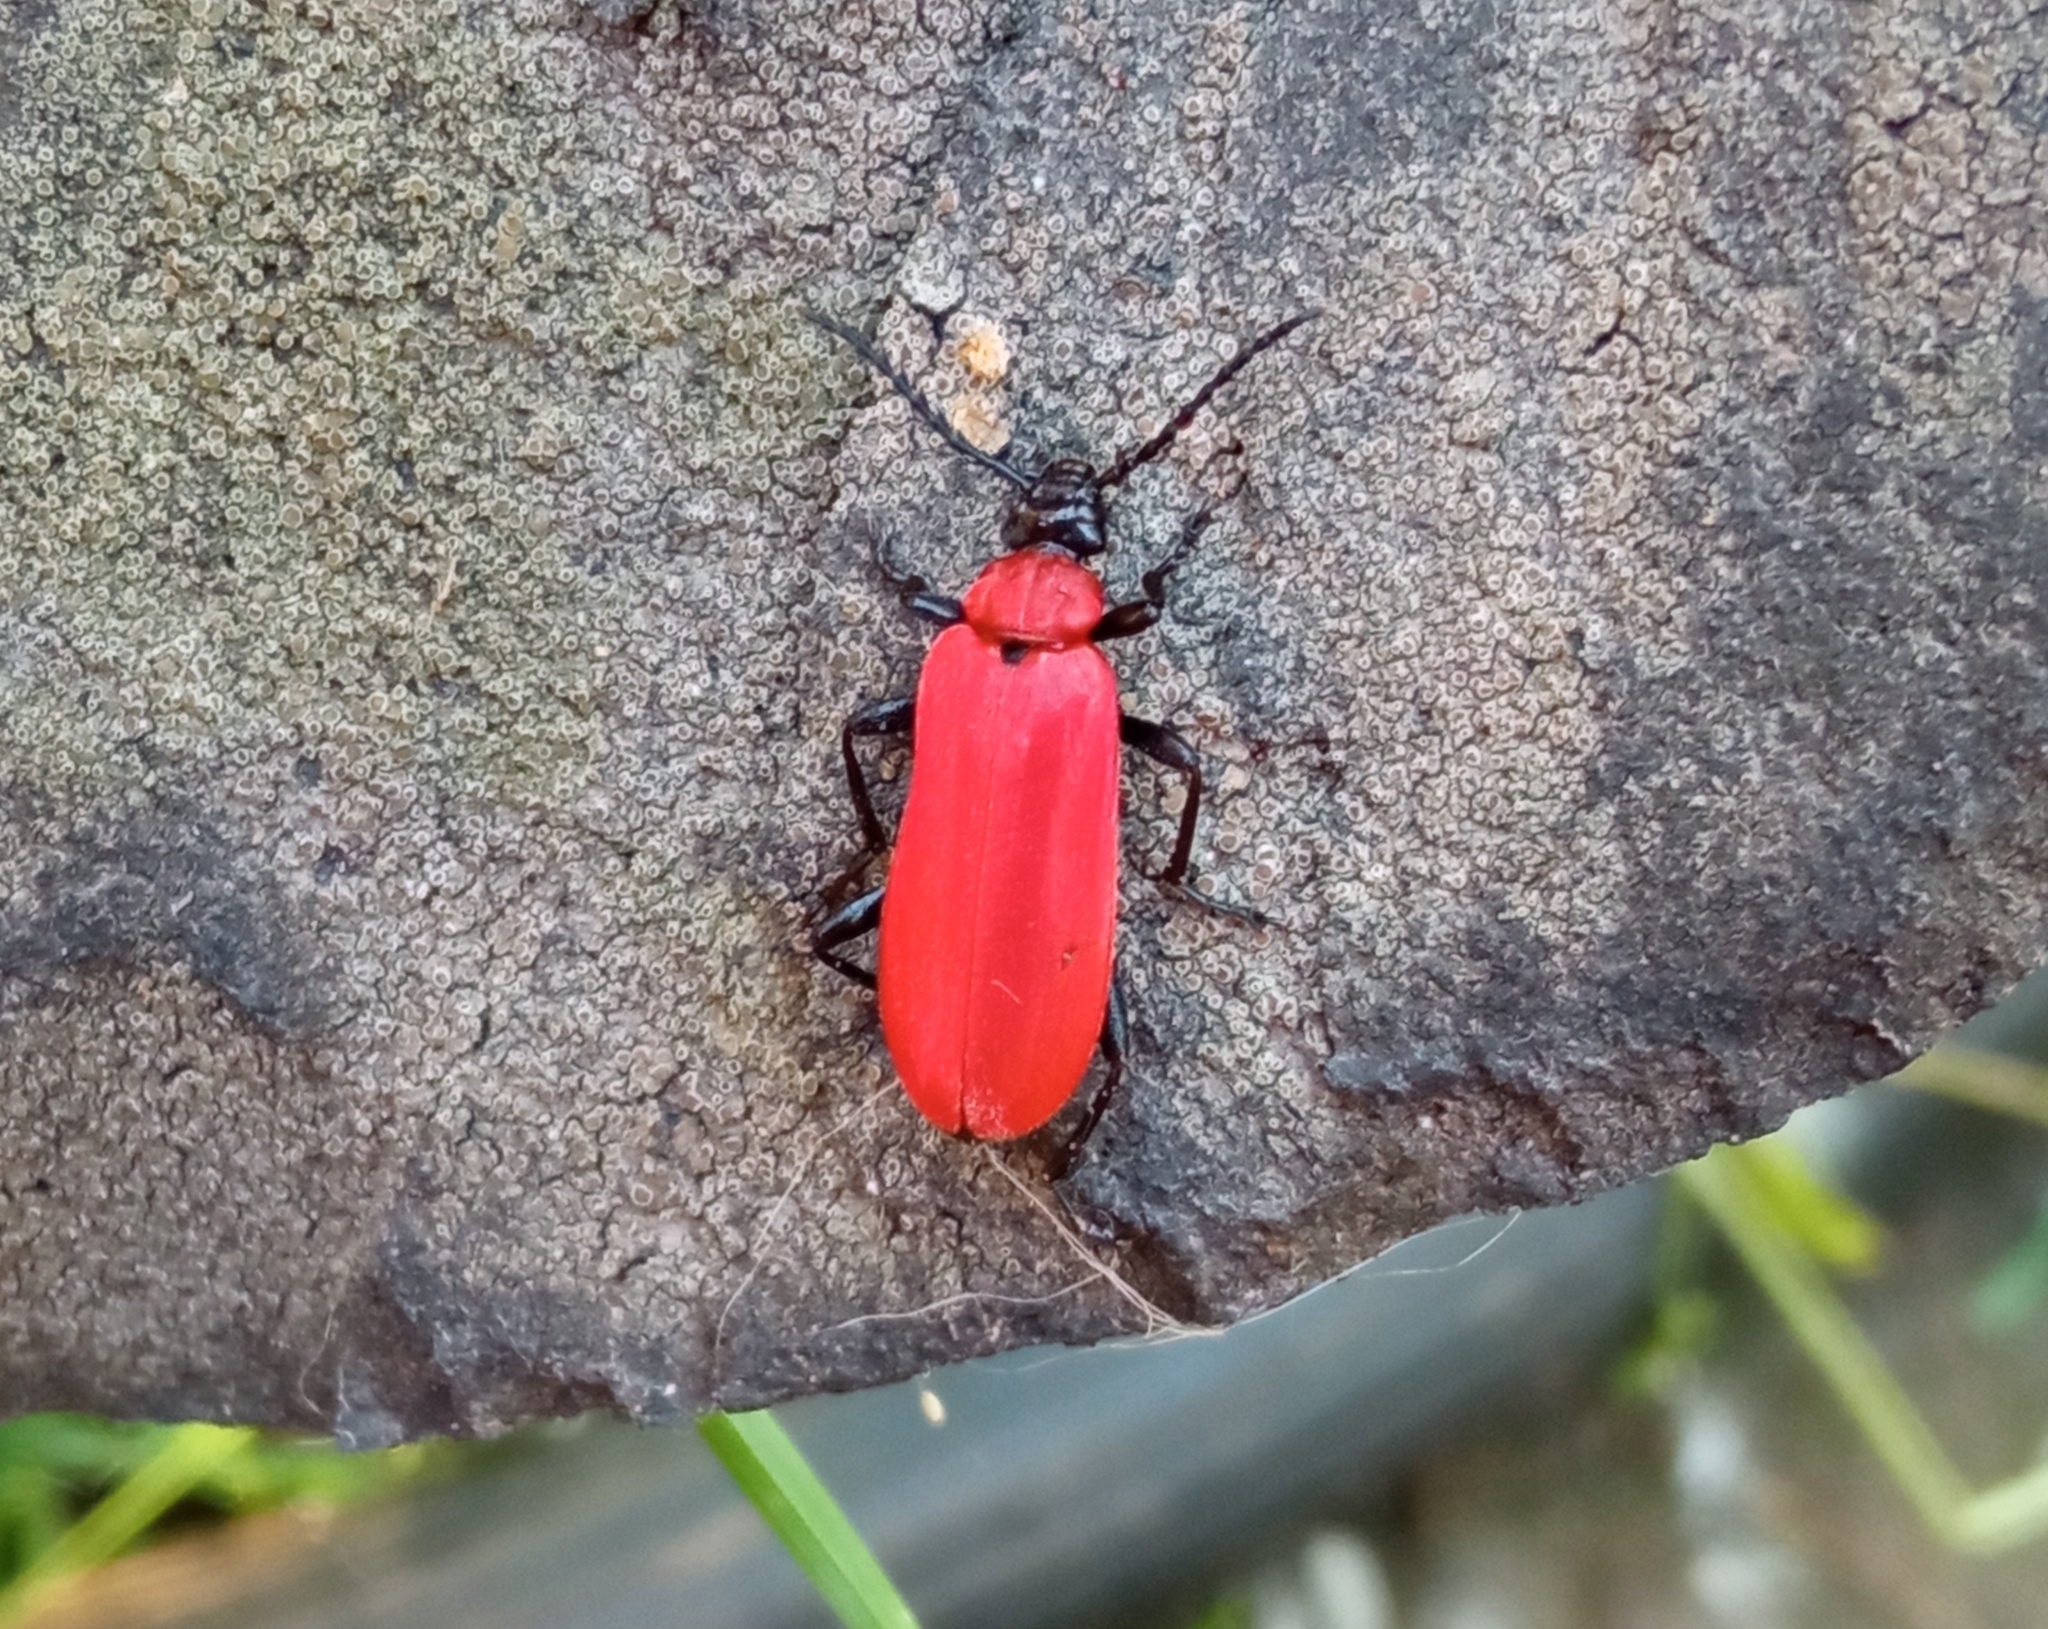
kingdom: Animalia
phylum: Arthropoda
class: Insecta
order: Coleoptera
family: Pyrochroidae
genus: Pyrochroa
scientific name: Pyrochroa coccinea
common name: Black-headed cardinal beetle
